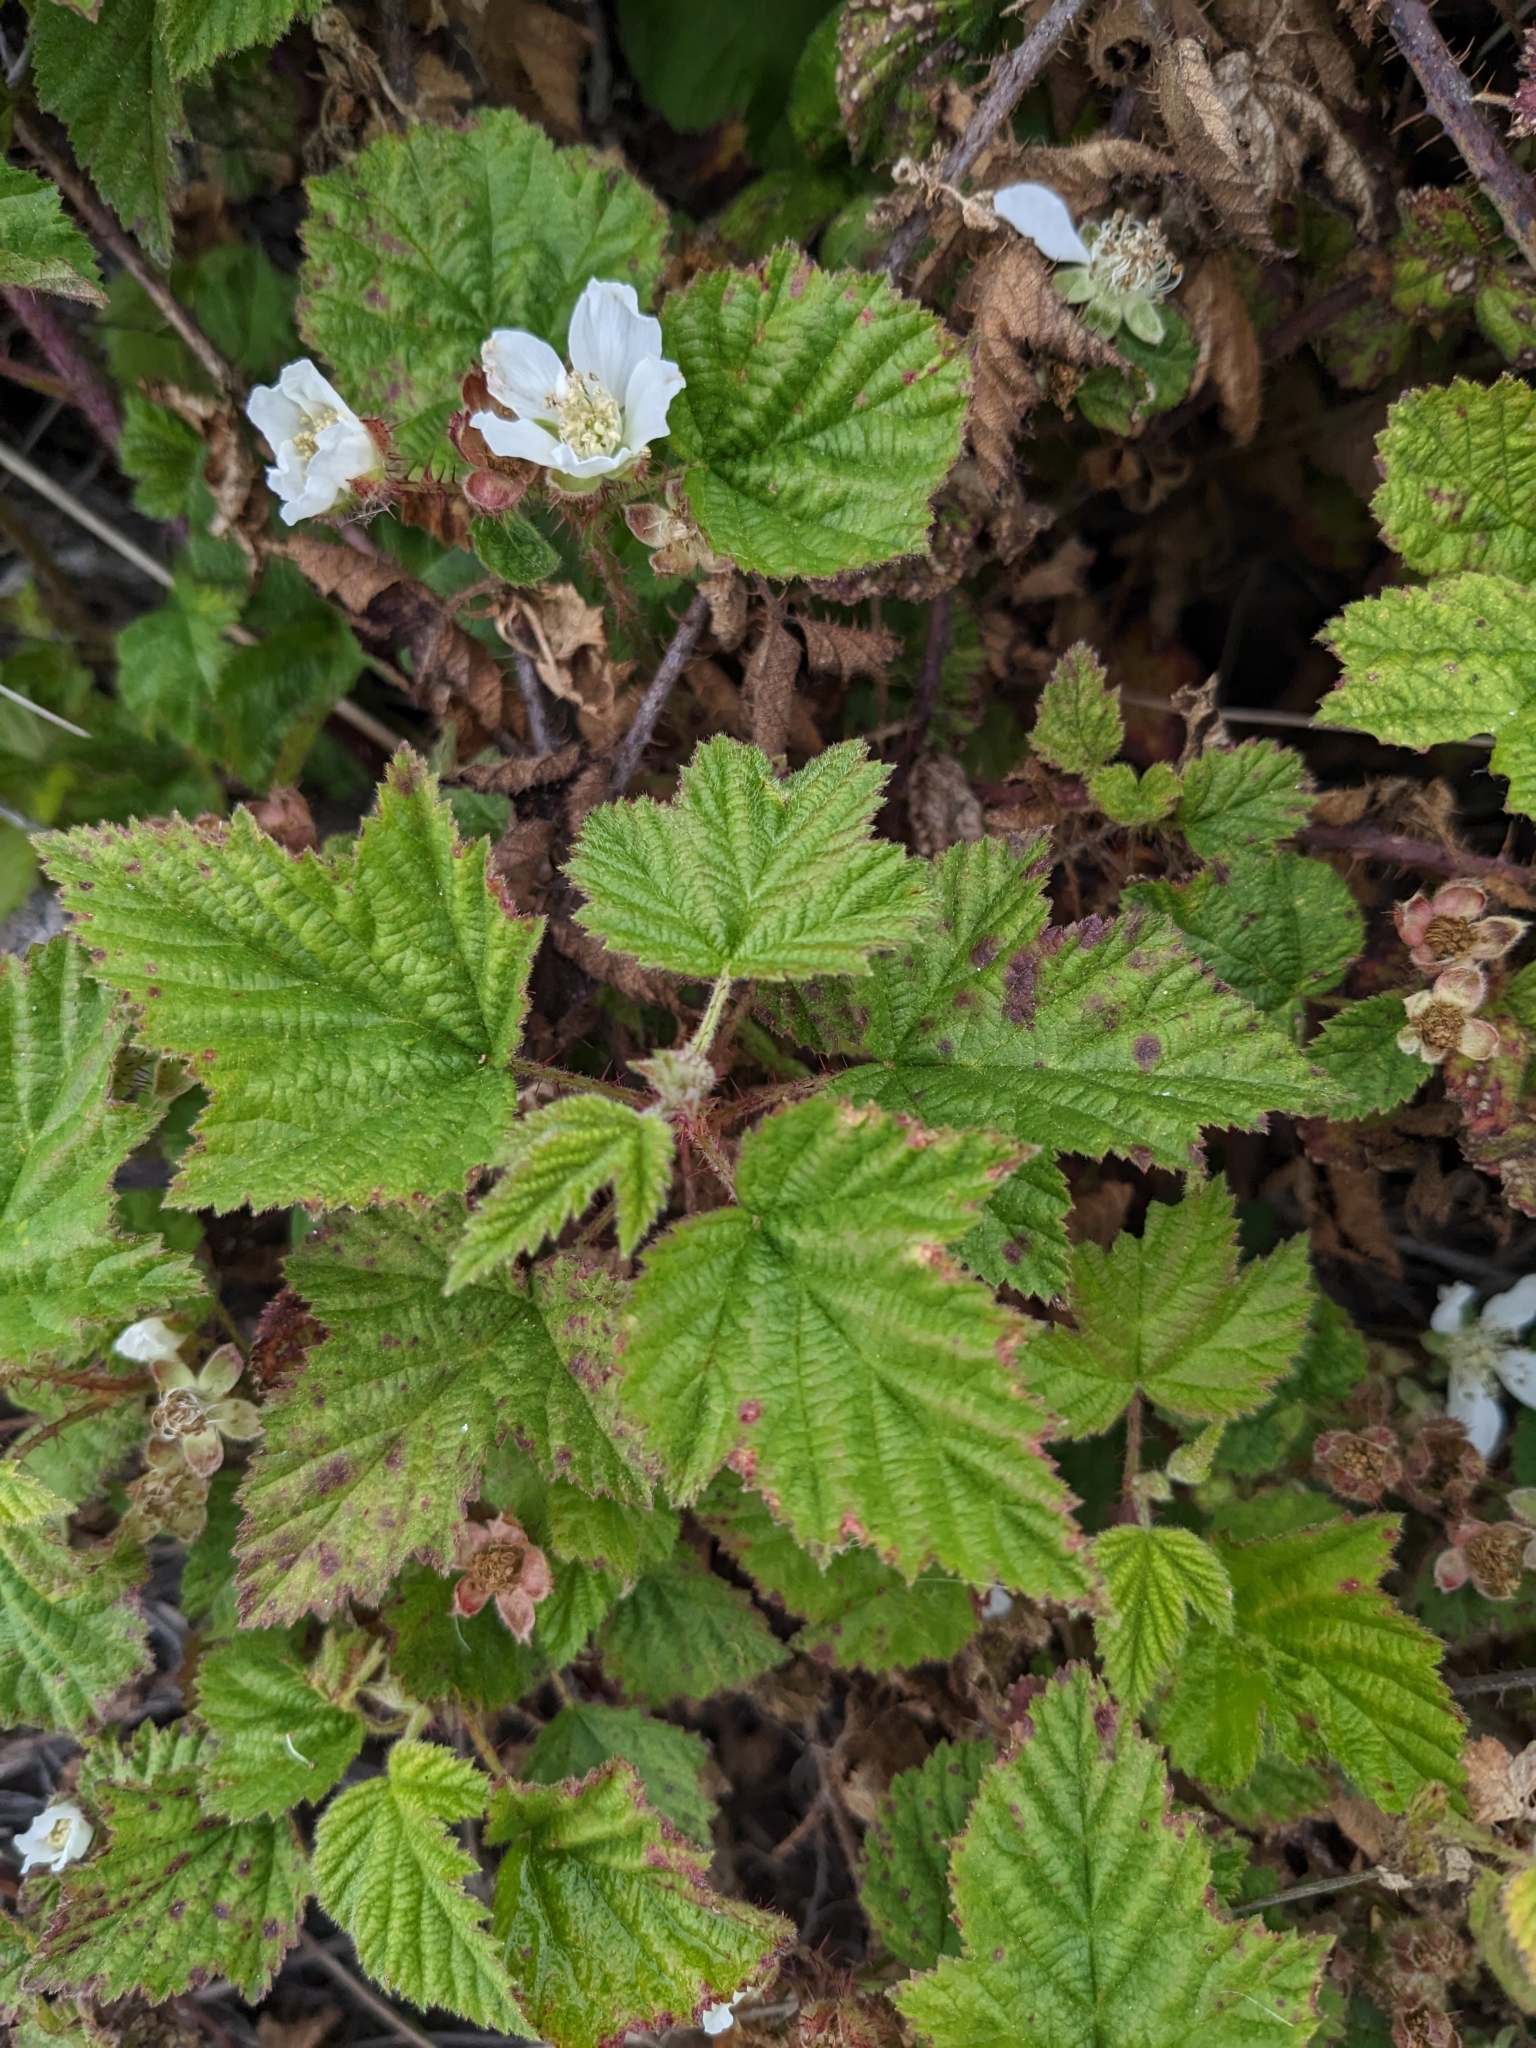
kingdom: Plantae
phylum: Tracheophyta
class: Magnoliopsida
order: Rosales
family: Rosaceae
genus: Rubus
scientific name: Rubus ursinus
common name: Pacific blackberry
